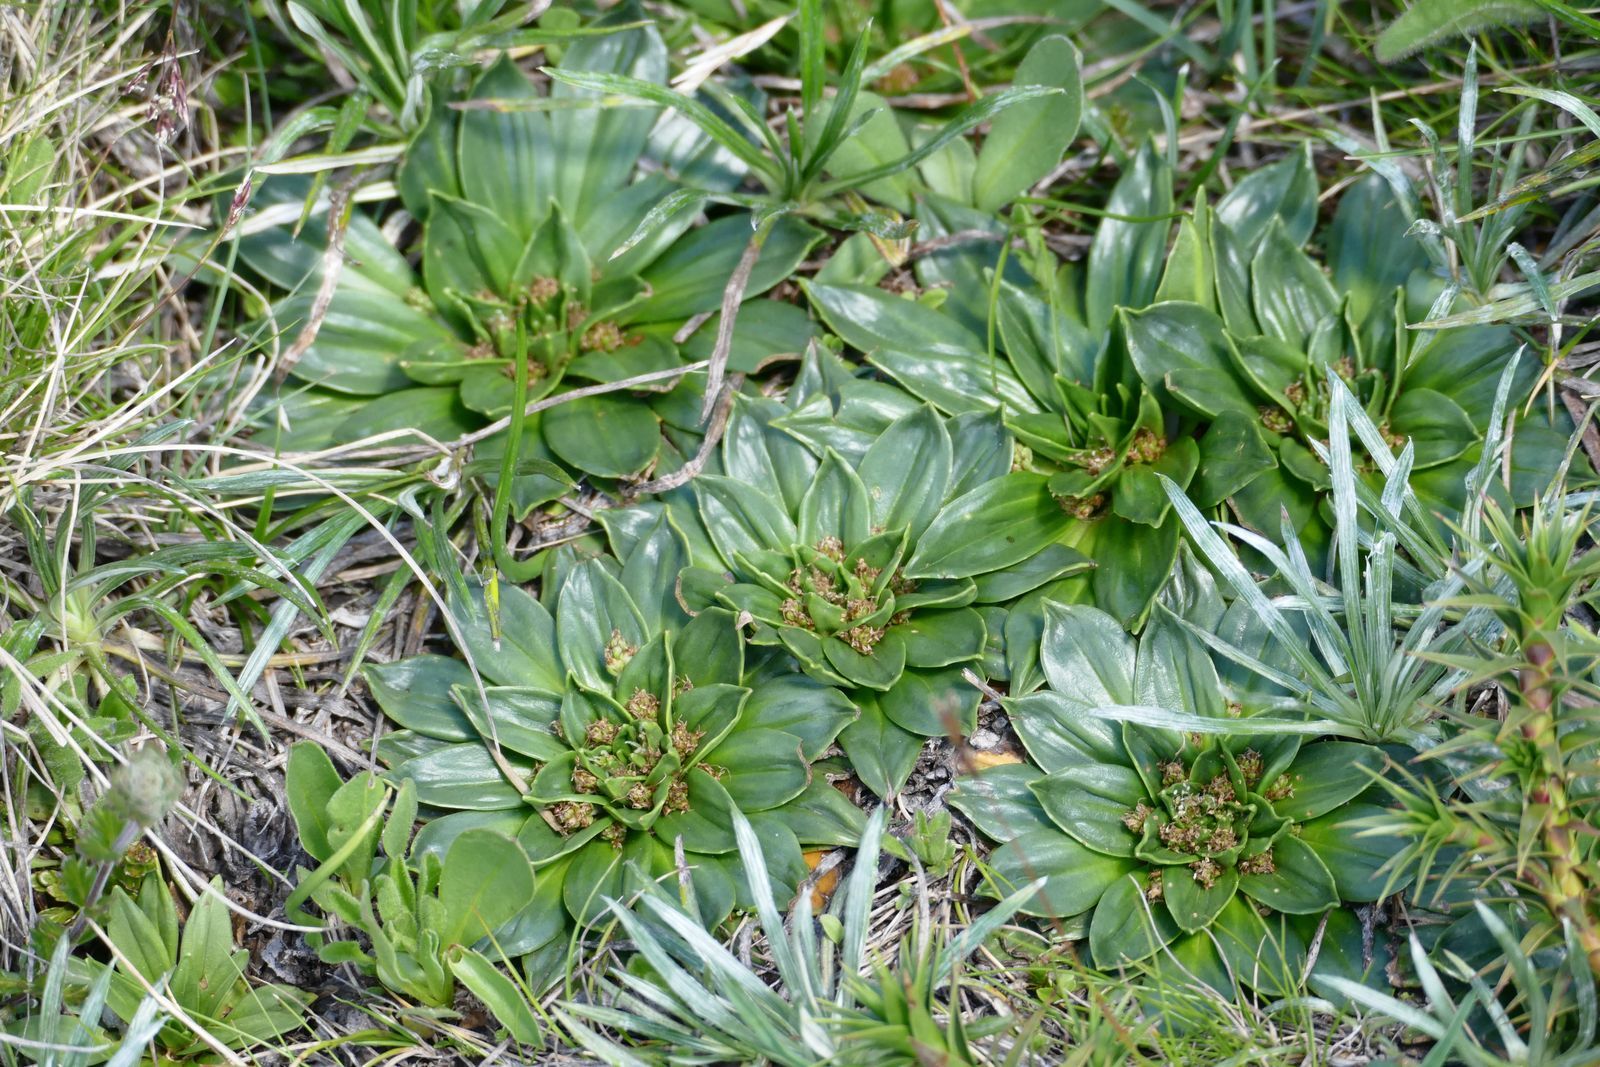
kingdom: Plantae
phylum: Tracheophyta
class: Magnoliopsida
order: Lamiales
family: Plantaginaceae
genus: Plantago
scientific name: Plantago muelleri
